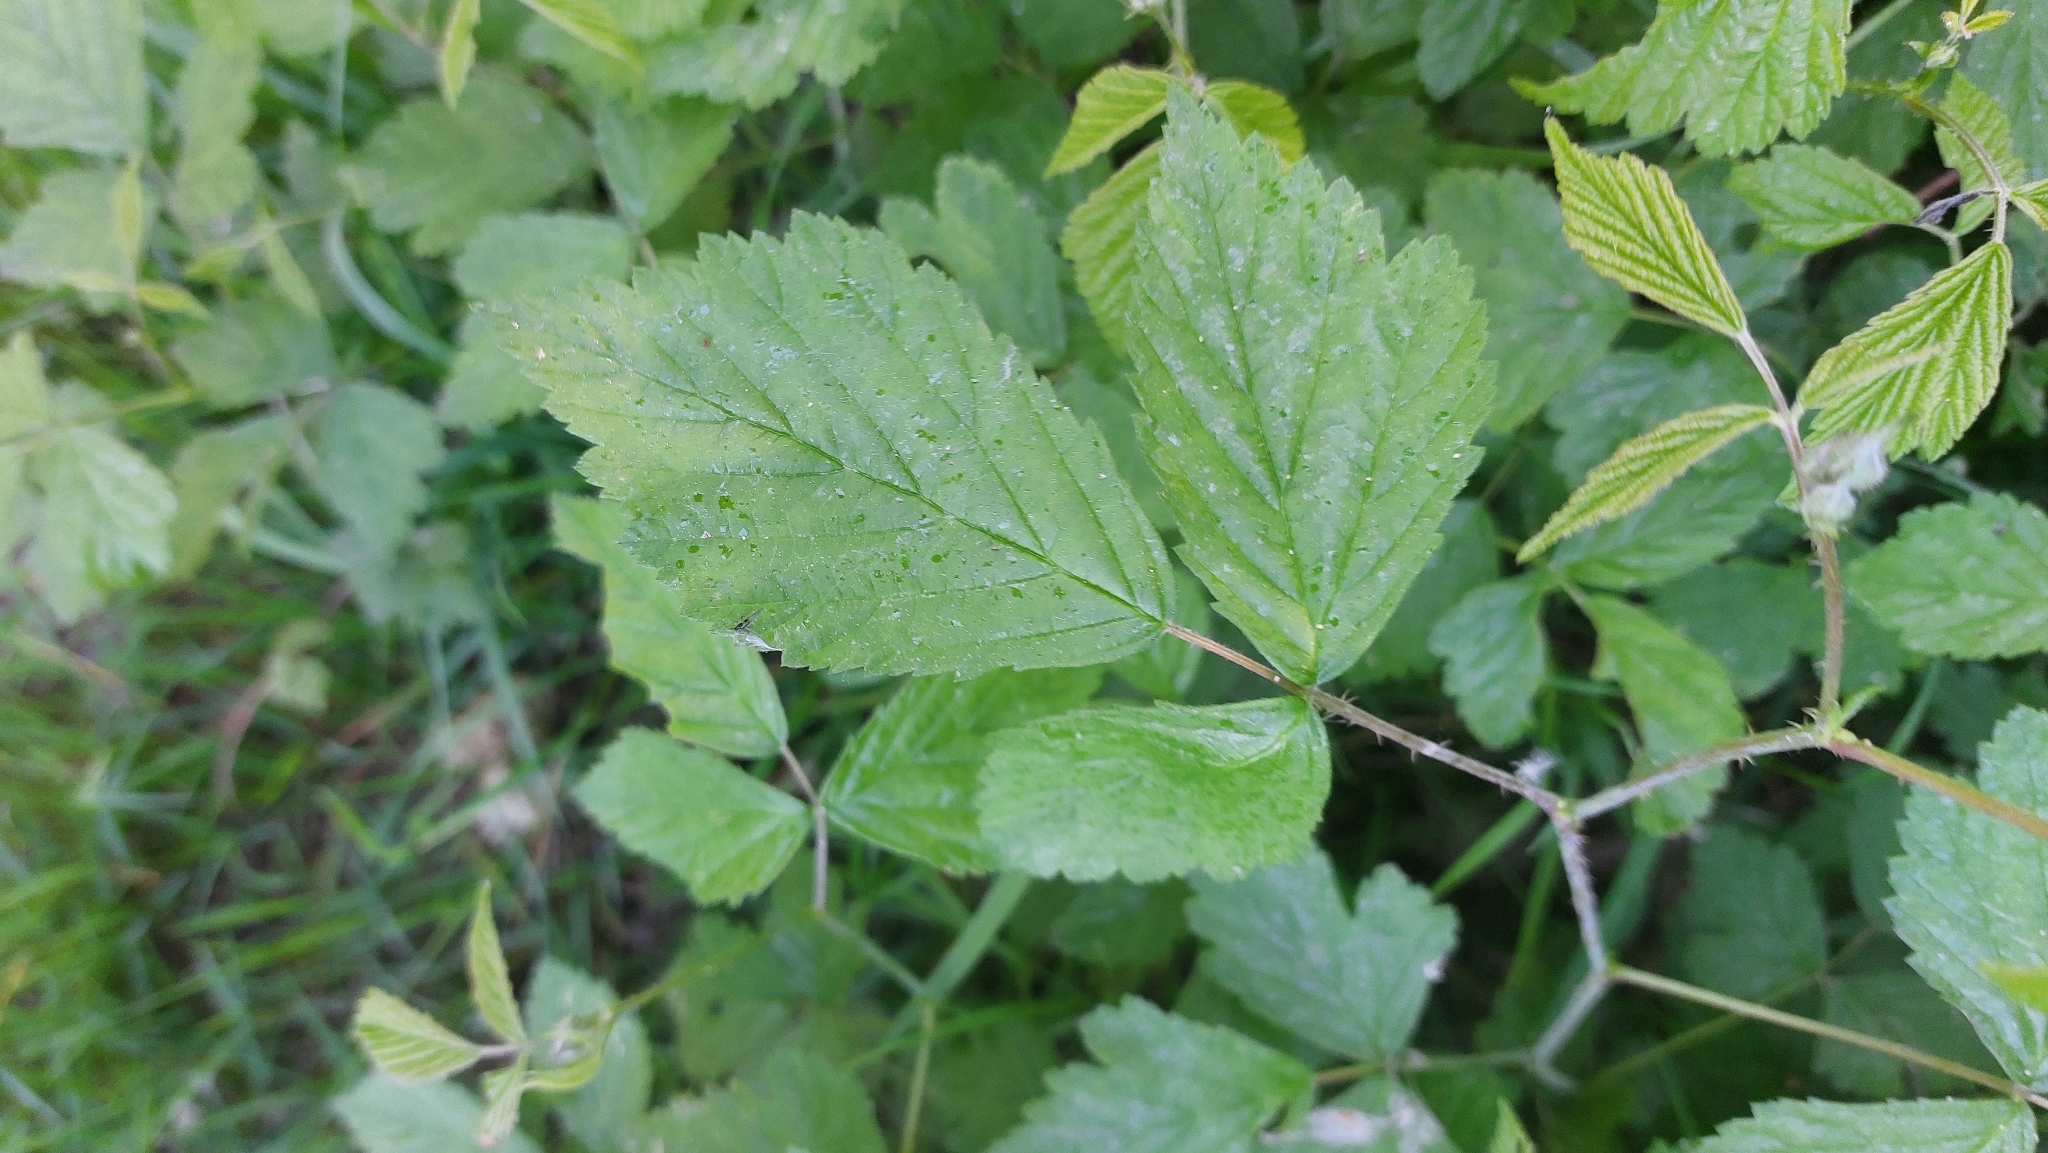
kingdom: Plantae
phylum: Tracheophyta
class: Magnoliopsida
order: Rosales
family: Rosaceae
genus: Rubus
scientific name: Rubus caesius
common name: Dewberry
